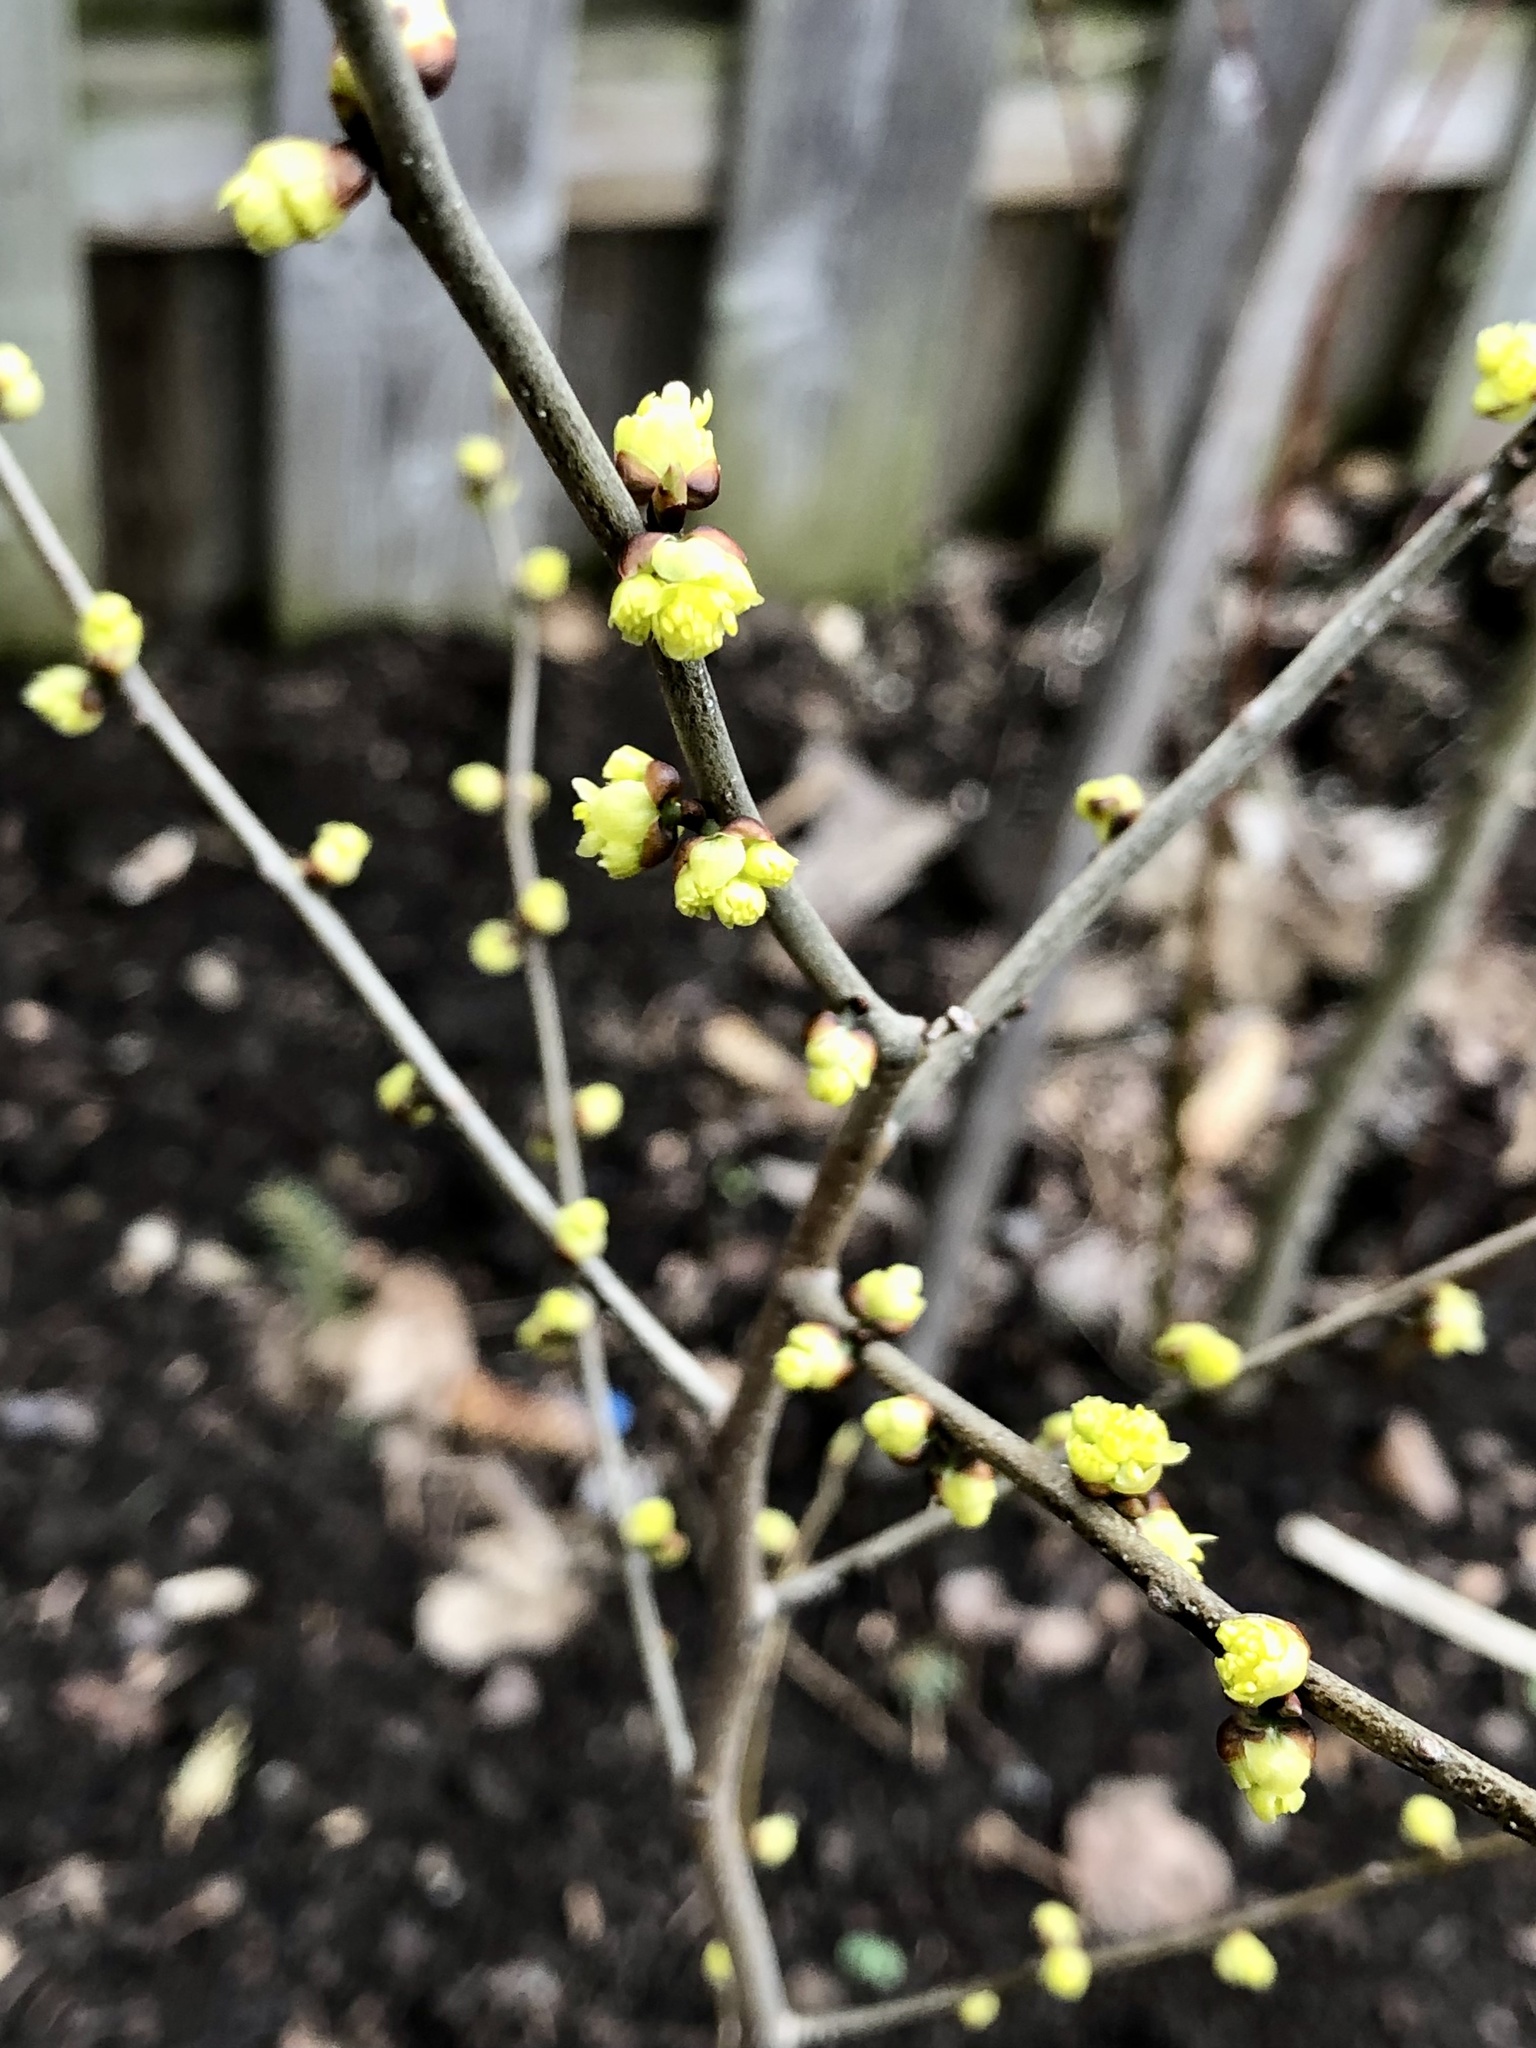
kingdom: Plantae
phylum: Tracheophyta
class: Magnoliopsida
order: Laurales
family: Lauraceae
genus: Lindera
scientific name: Lindera benzoin
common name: Spicebush
